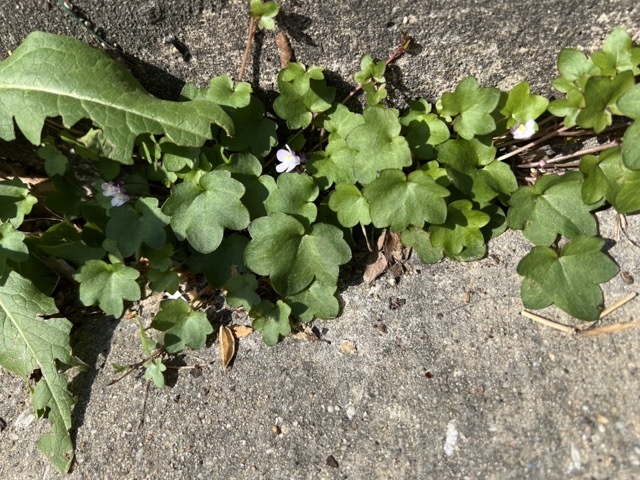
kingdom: Plantae
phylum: Tracheophyta
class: Magnoliopsida
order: Lamiales
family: Plantaginaceae
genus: Cymbalaria
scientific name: Cymbalaria muralis
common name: Ivy-leaved toadflax
